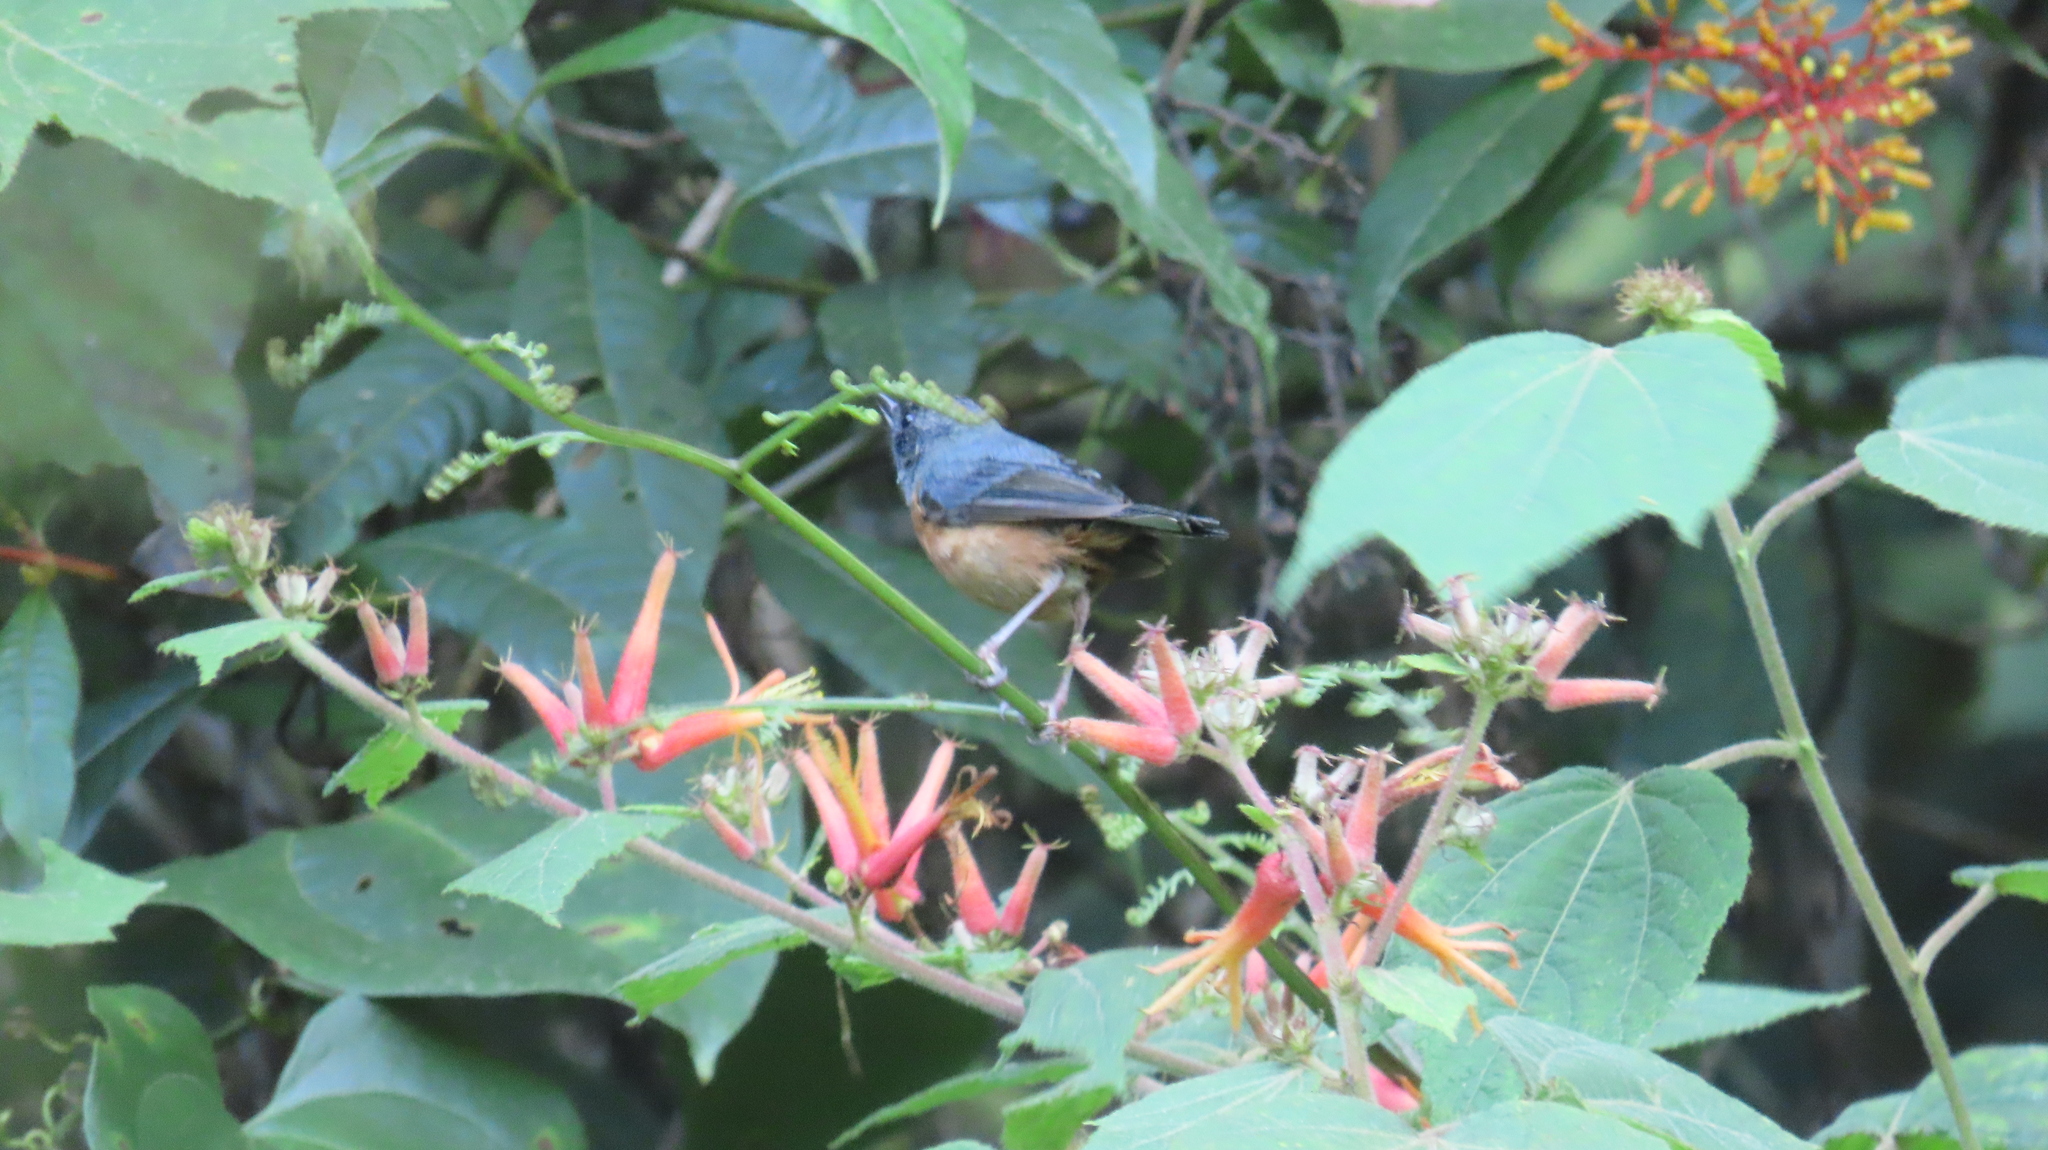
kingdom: Animalia
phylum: Chordata
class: Aves
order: Passeriformes
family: Thraupidae
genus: Diglossa
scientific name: Diglossa baritula
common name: Cinnamon-bellied flowerpiercer
